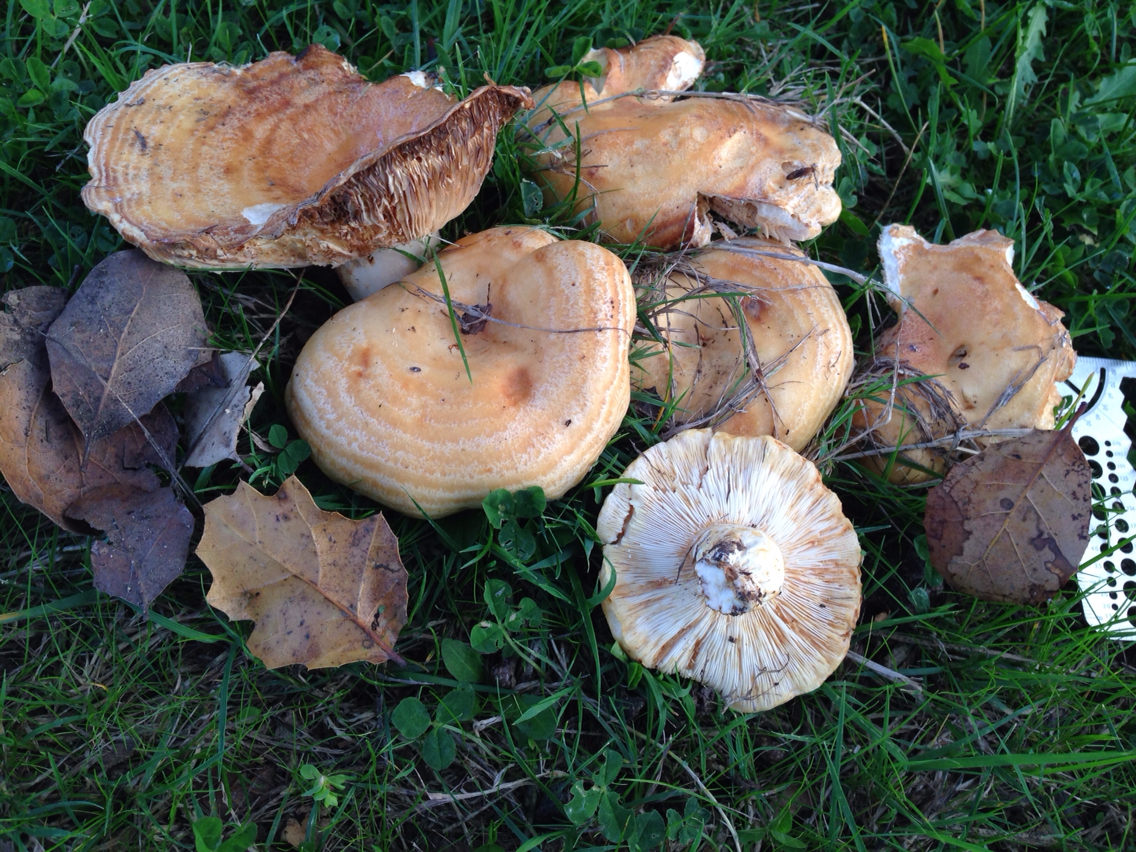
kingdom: Fungi
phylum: Basidiomycota
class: Agaricomycetes
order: Russulales
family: Russulaceae
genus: Lactarius
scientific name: Lactarius alnicola
